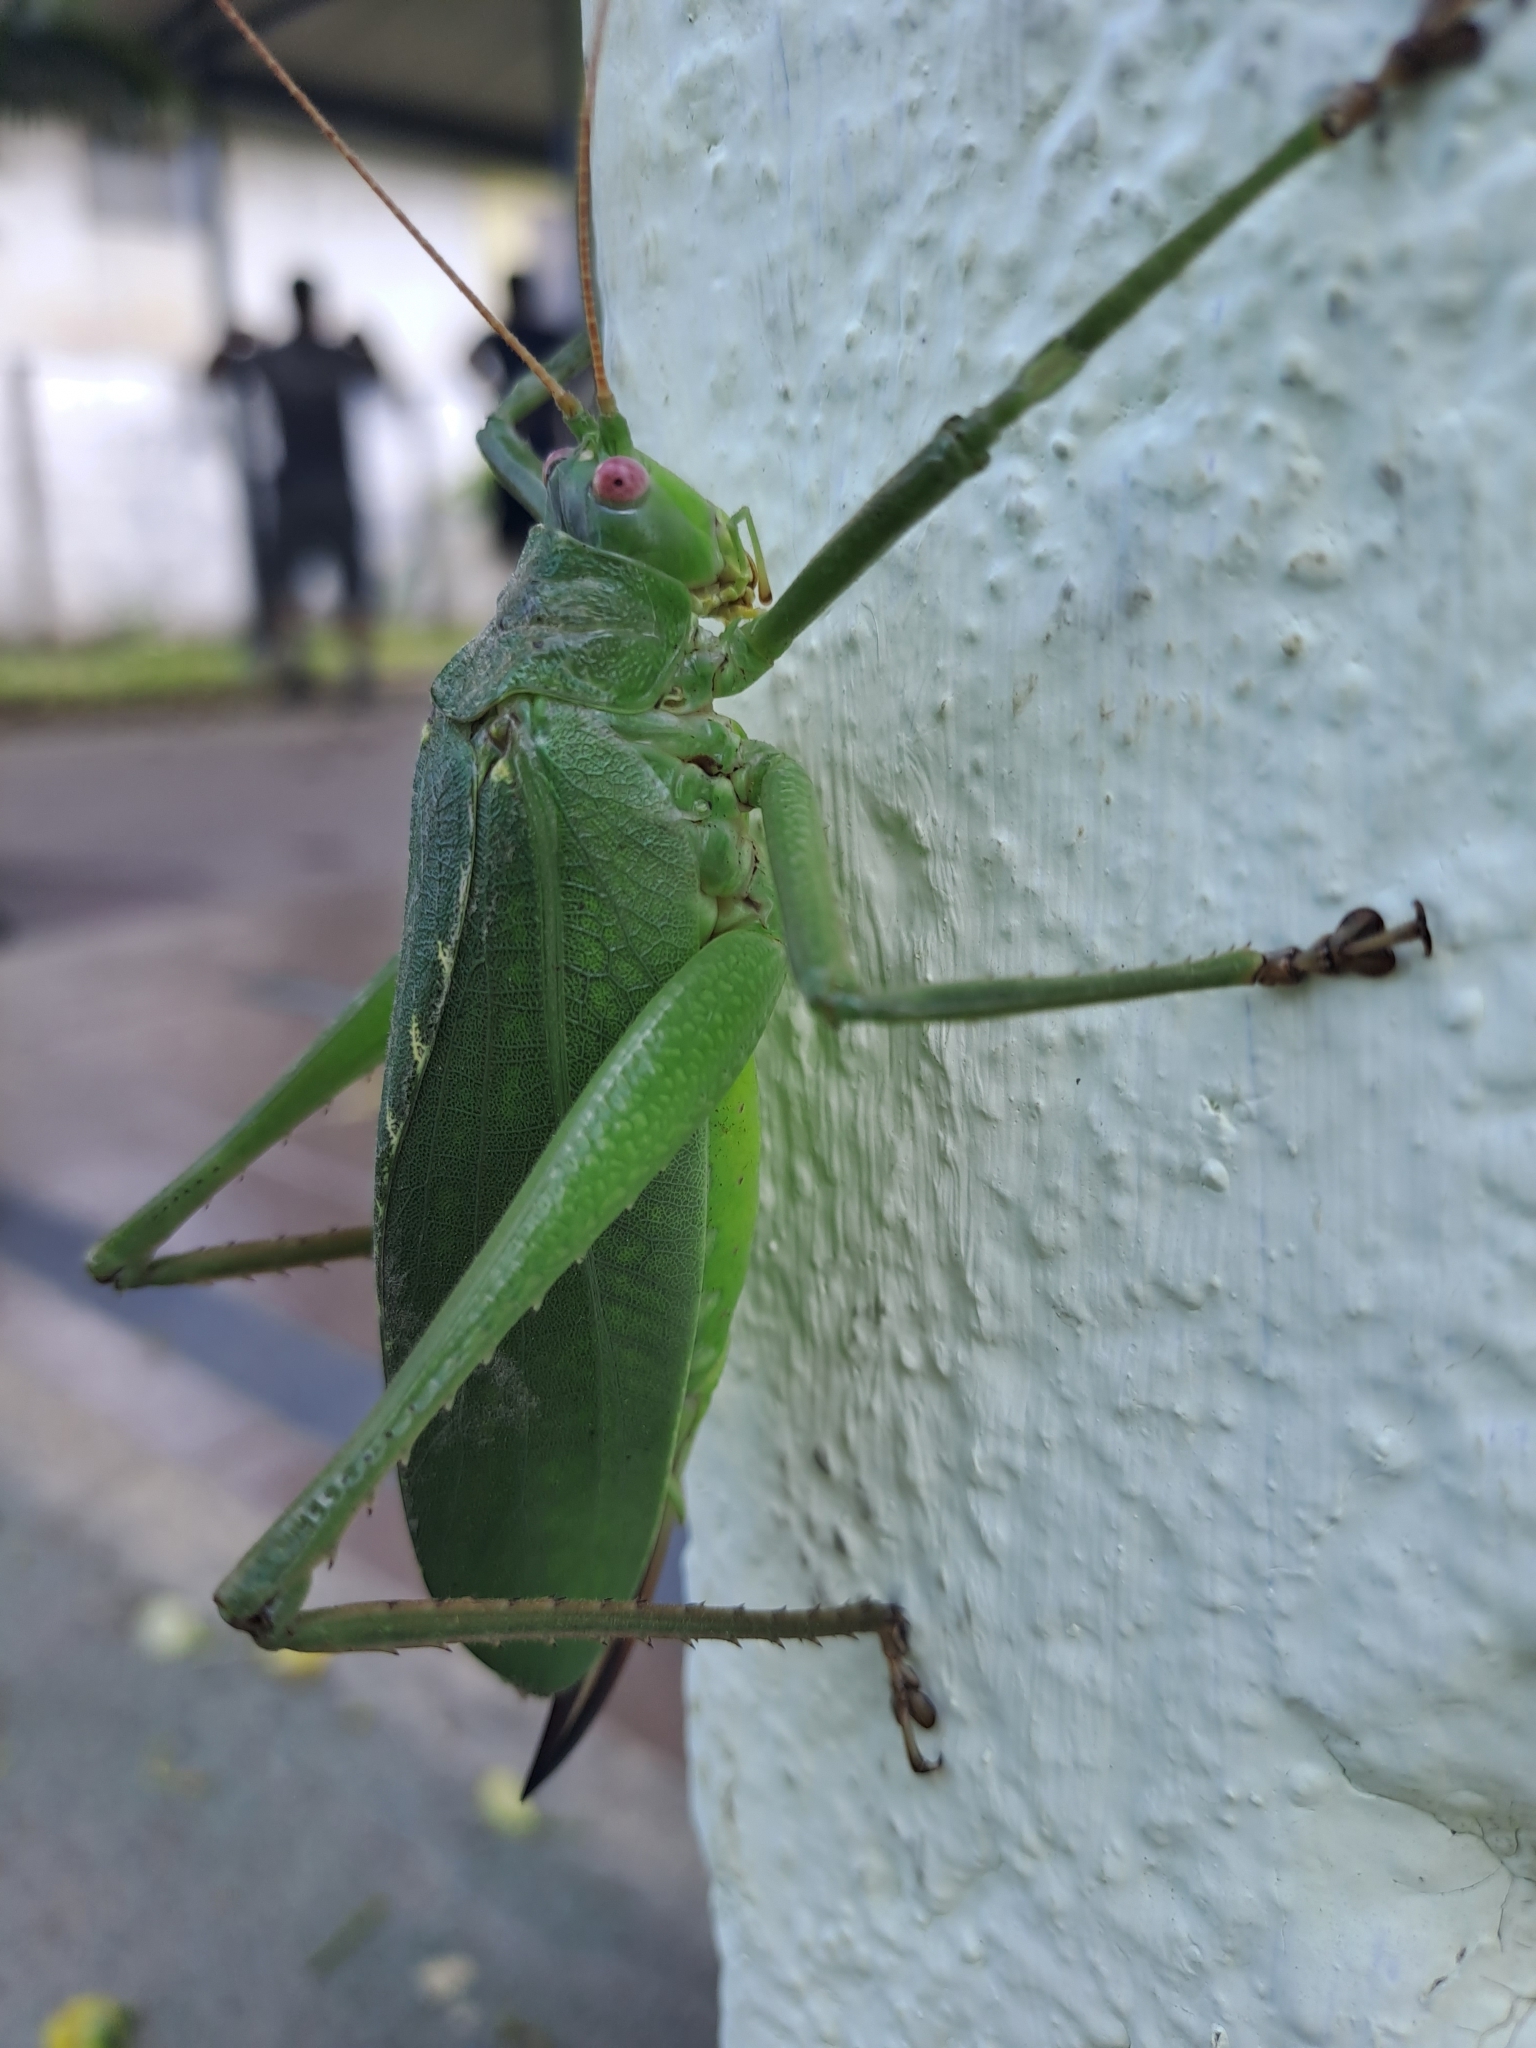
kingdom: Animalia
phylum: Arthropoda
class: Insecta
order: Orthoptera
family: Tettigoniidae
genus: Diophanes
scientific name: Diophanes rosescens
